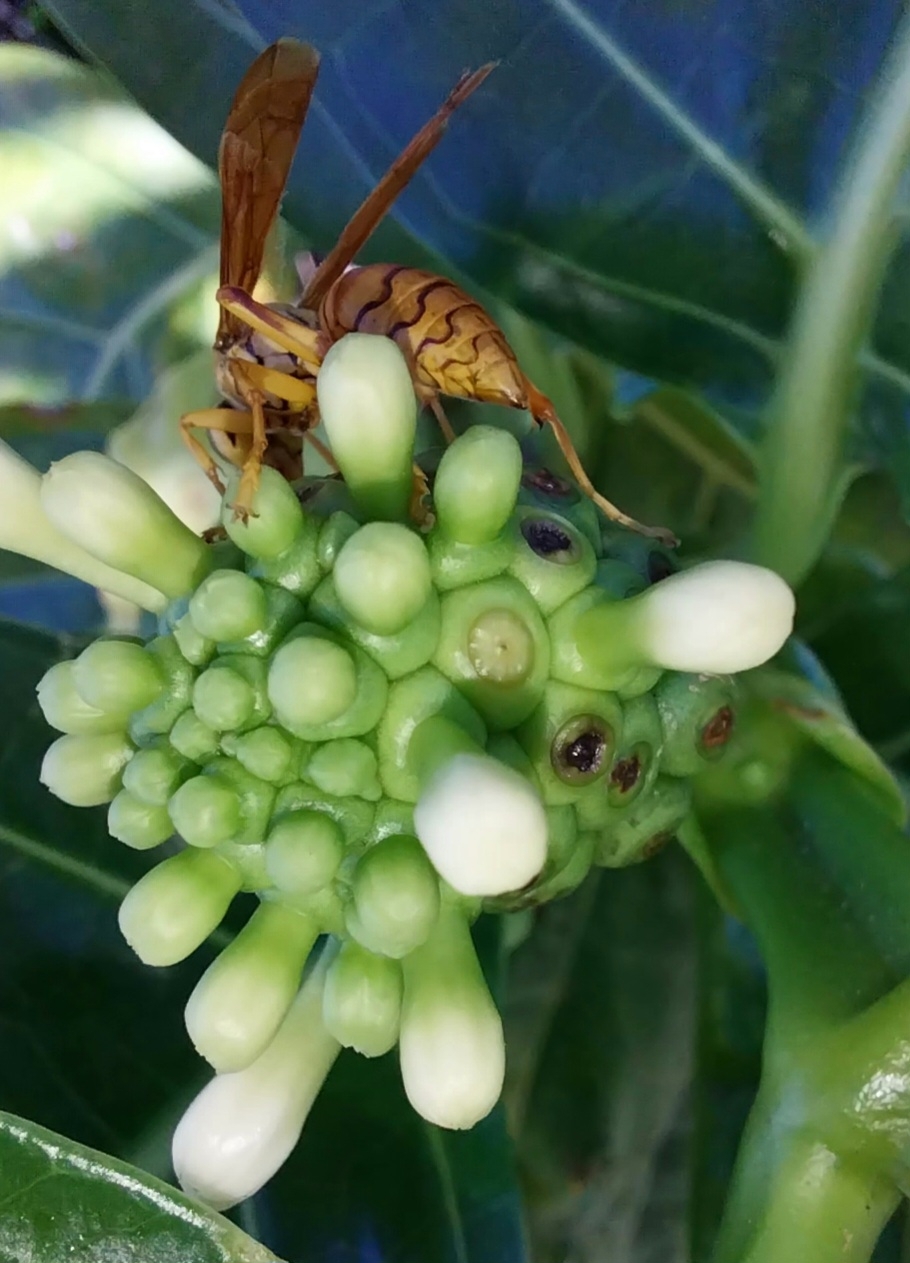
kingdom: Animalia
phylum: Arthropoda
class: Insecta
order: Hymenoptera
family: Eumenidae
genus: Polistes
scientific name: Polistes olivaceus
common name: Paper wasp
